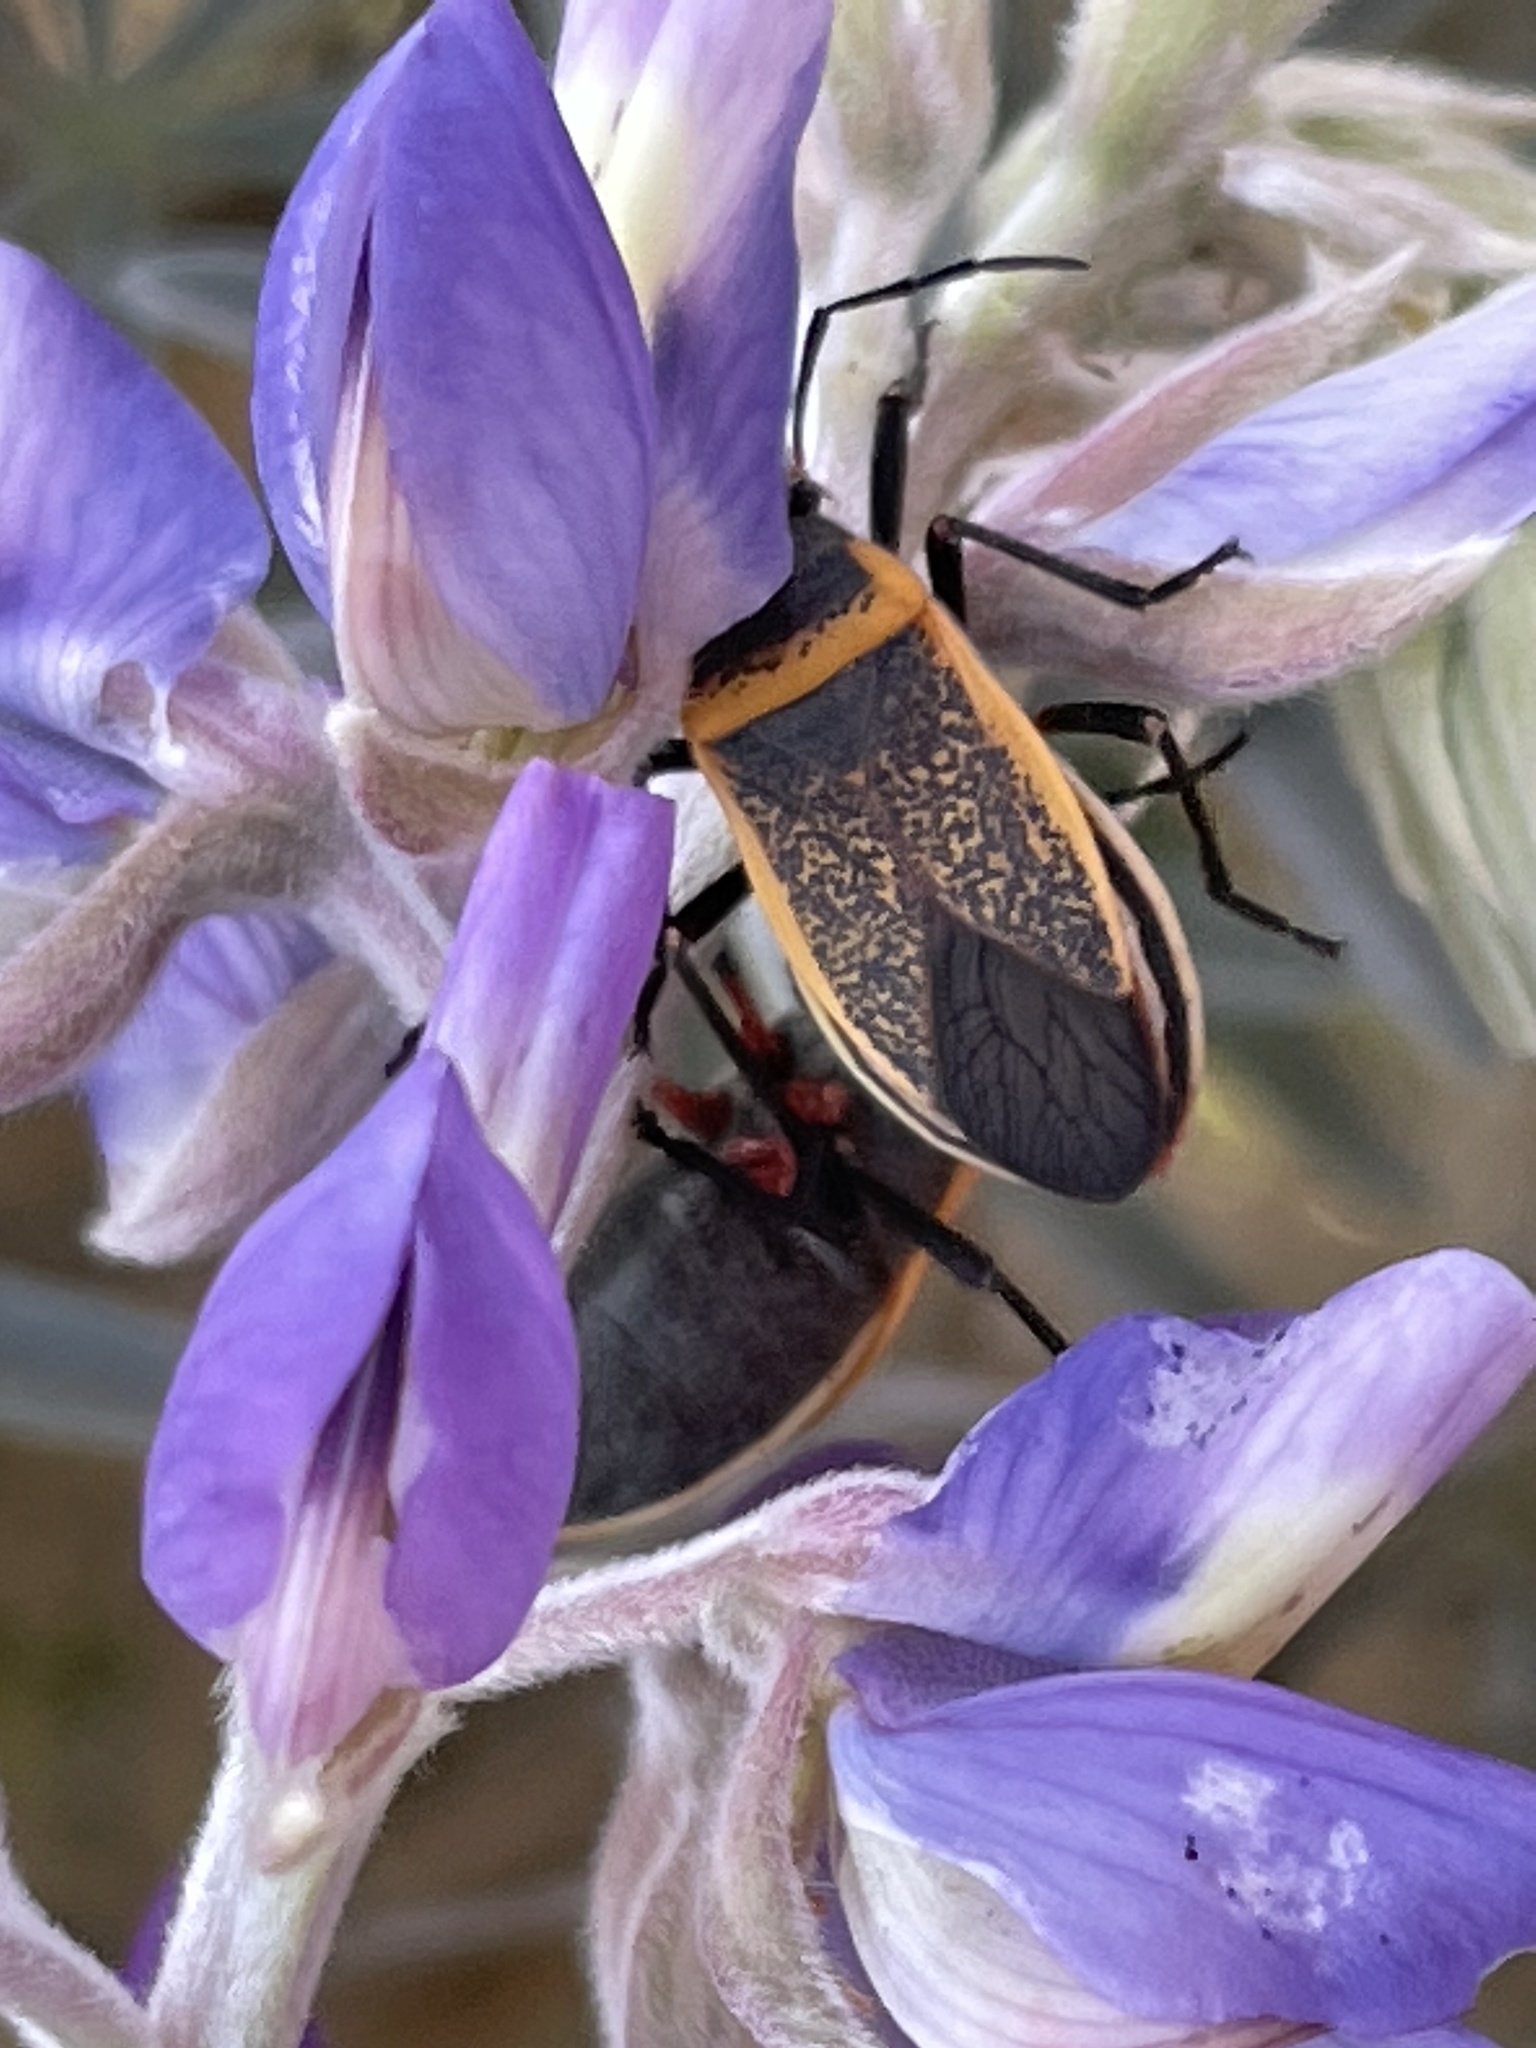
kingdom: Animalia
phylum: Arthropoda
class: Insecta
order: Hemiptera
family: Largidae
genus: Largus
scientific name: Largus californicus
